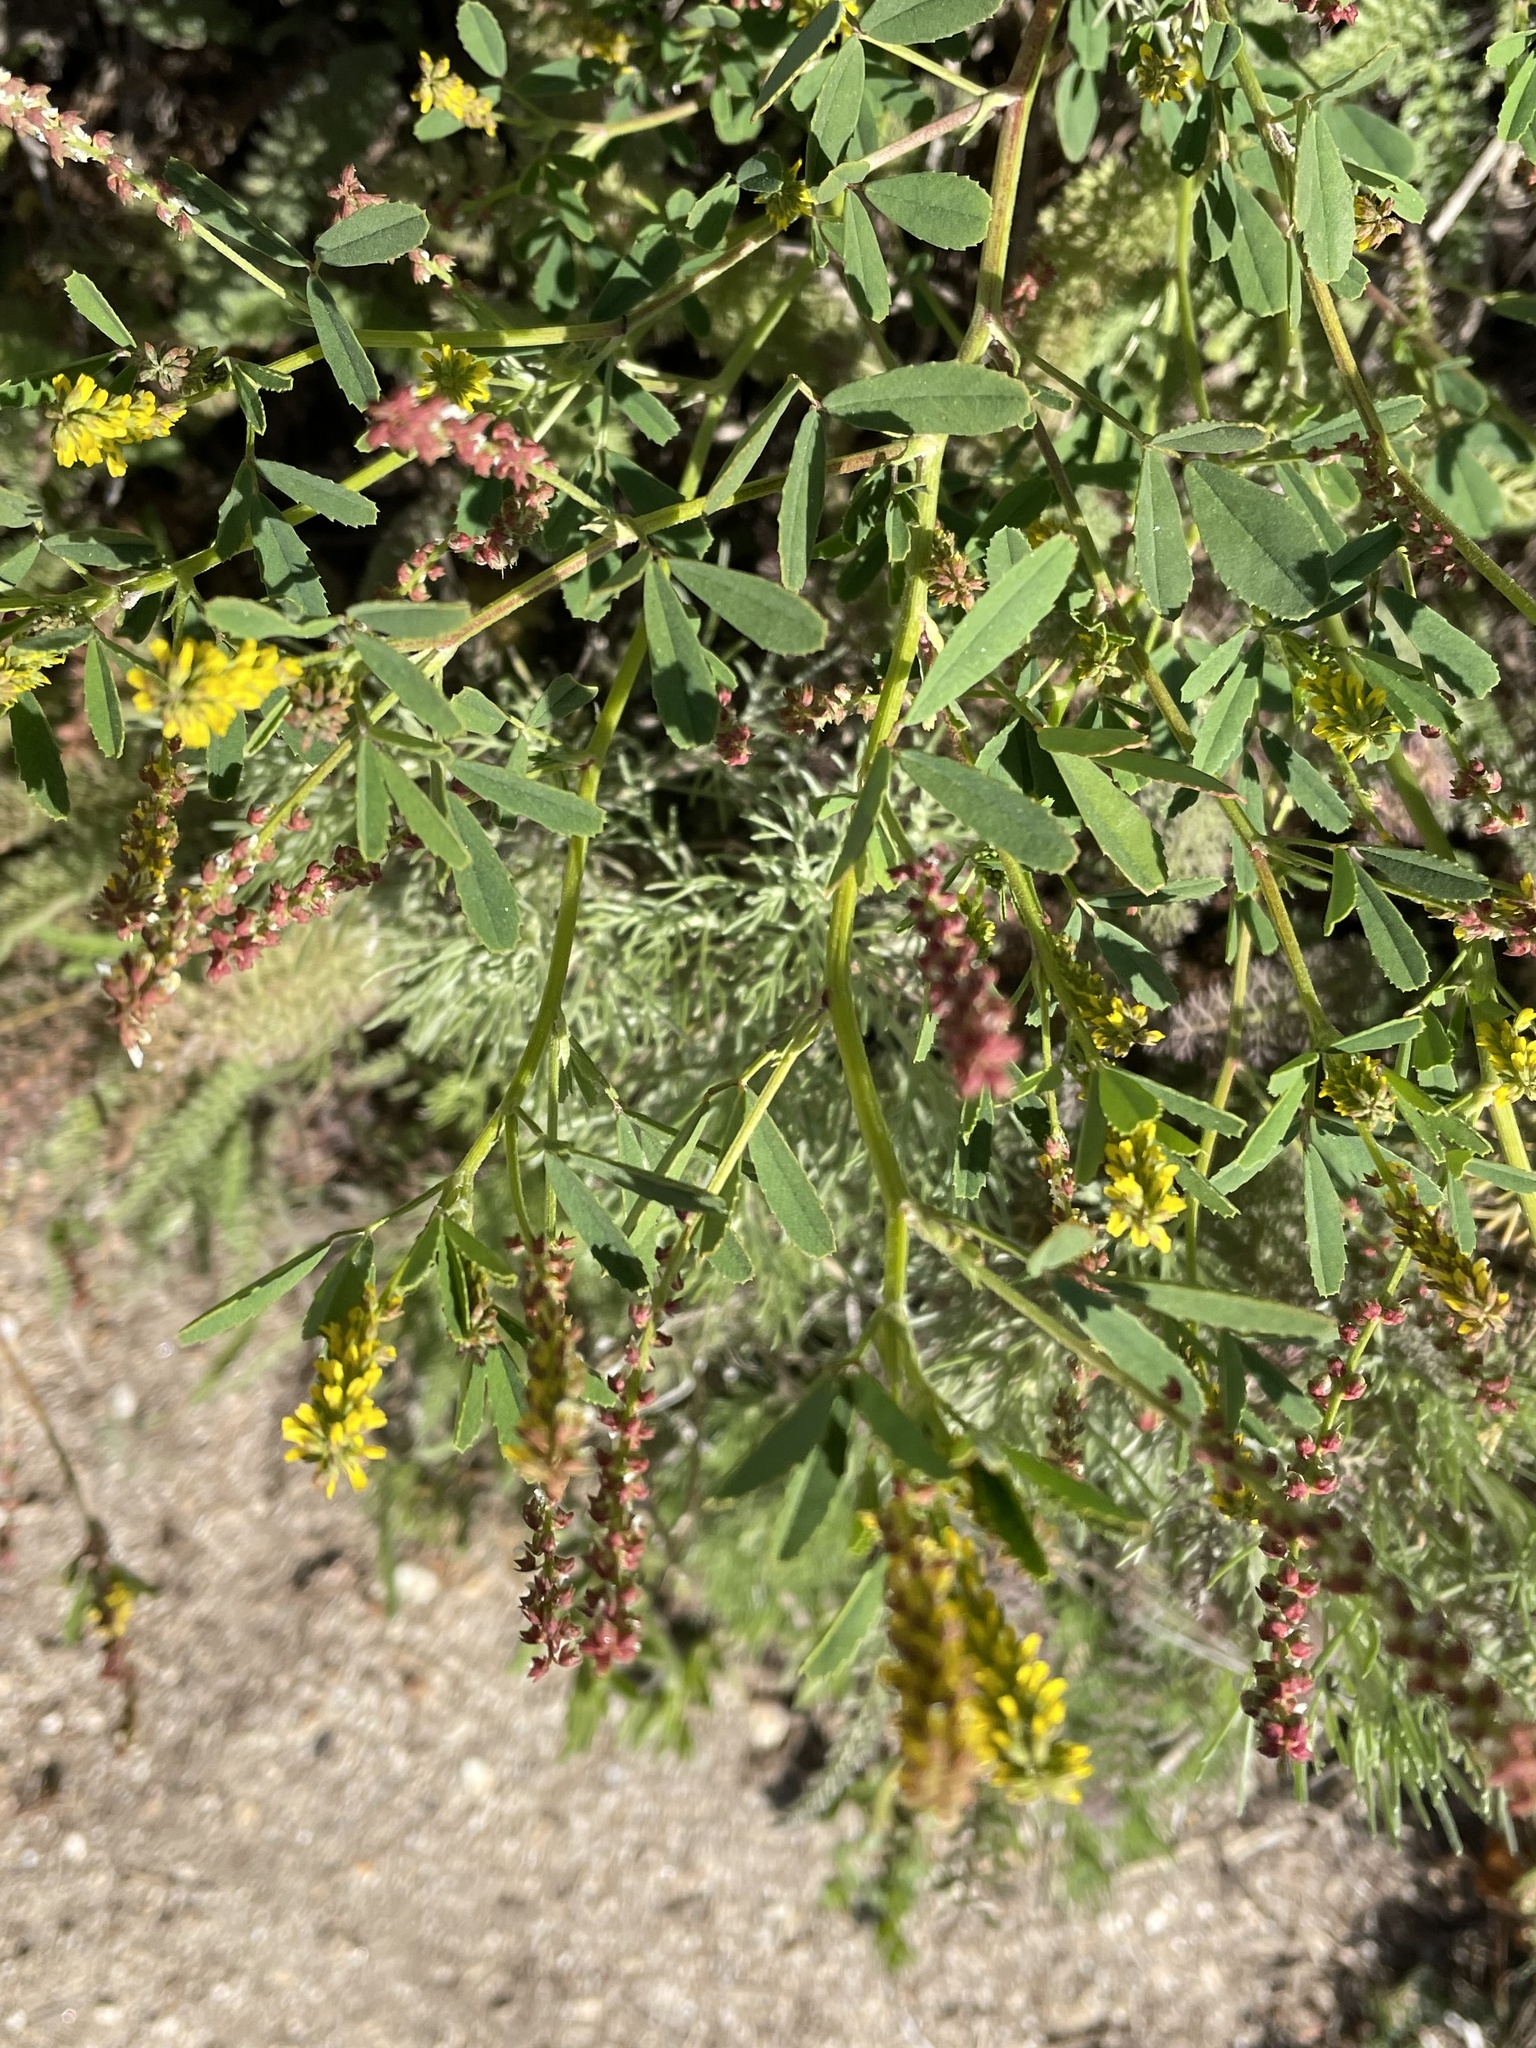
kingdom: Plantae
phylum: Tracheophyta
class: Magnoliopsida
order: Fabales
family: Fabaceae
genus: Melilotus
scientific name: Melilotus indicus
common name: Small melilot
